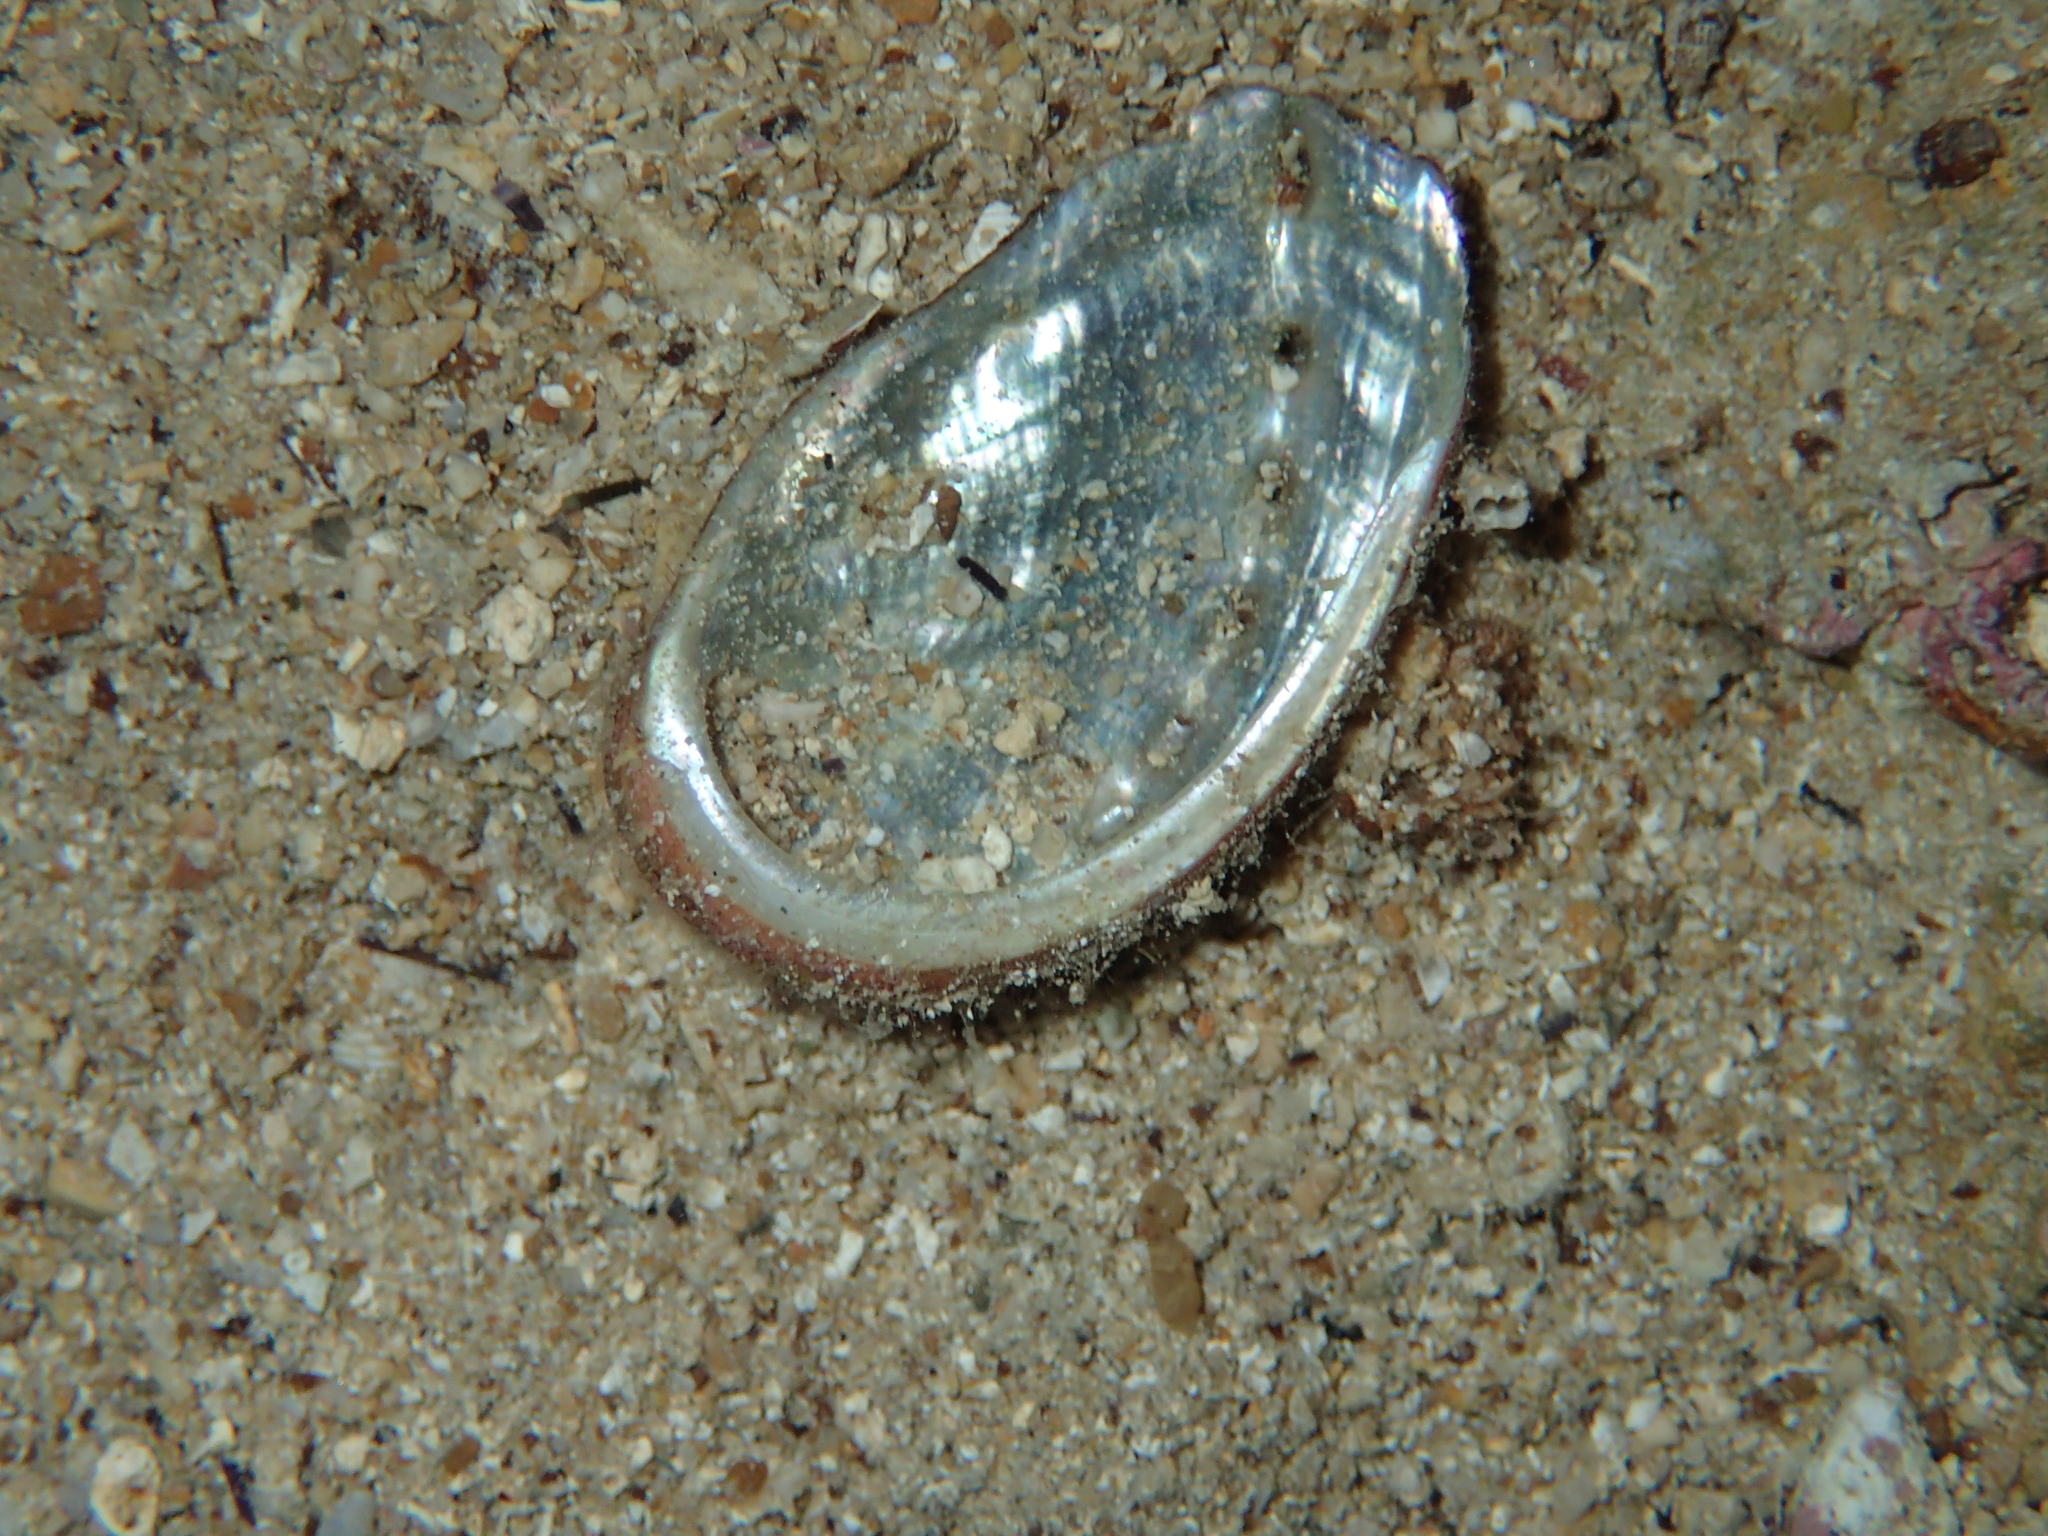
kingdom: Animalia
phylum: Mollusca
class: Gastropoda
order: Lepetellida
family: Haliotidae
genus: Haliotis
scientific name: Haliotis tuberculata
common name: Green ormer
